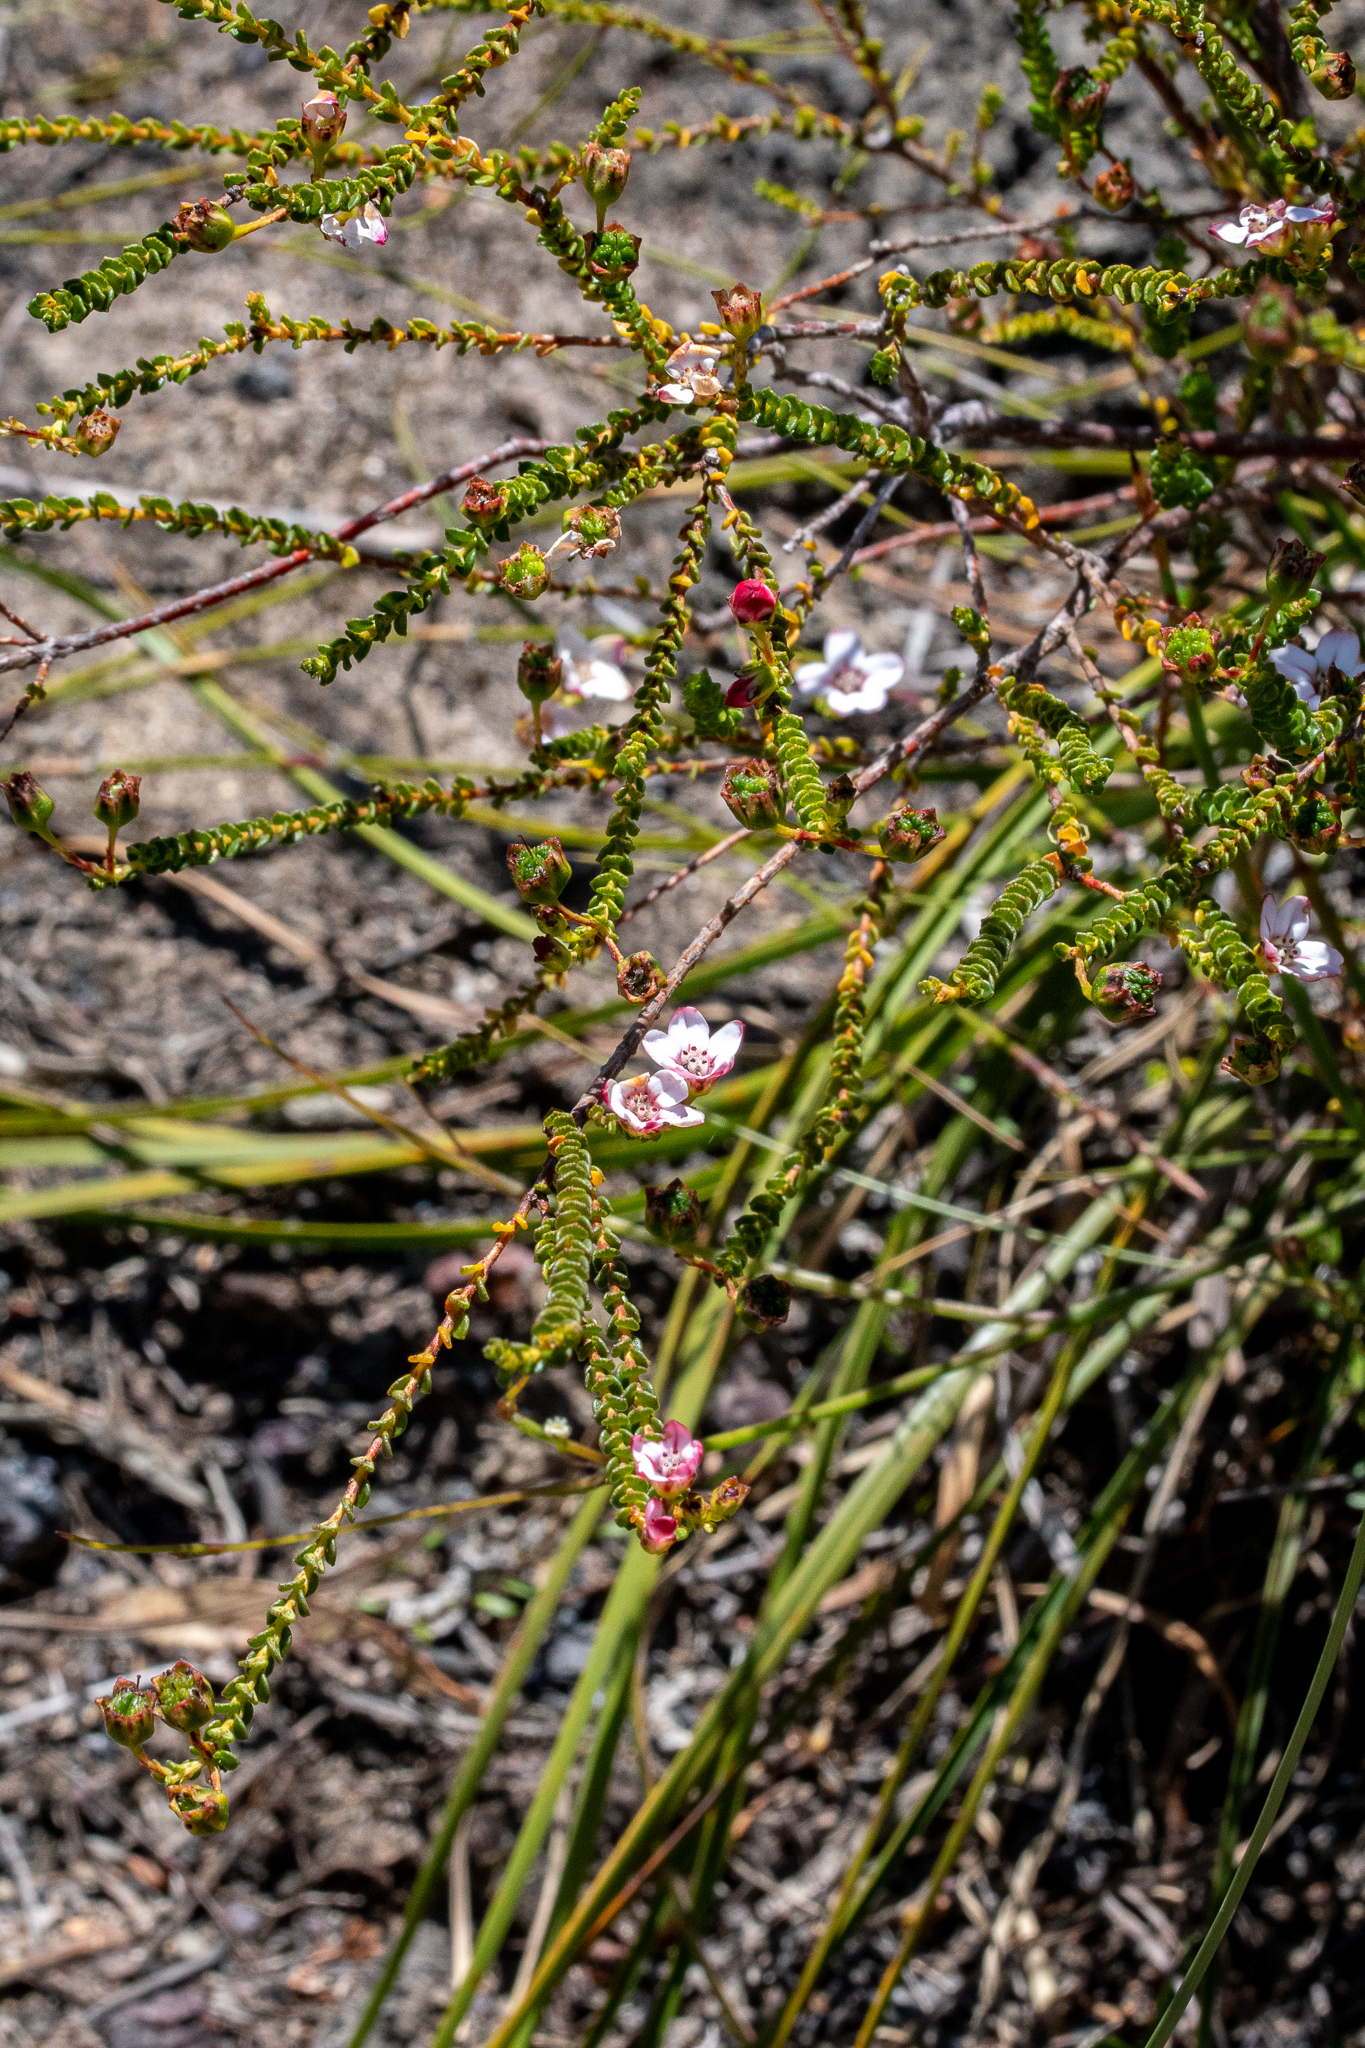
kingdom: Plantae
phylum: Tracheophyta
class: Magnoliopsida
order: Sapindales
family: Rutaceae
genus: Adenandra
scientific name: Adenandra brachyphylla
